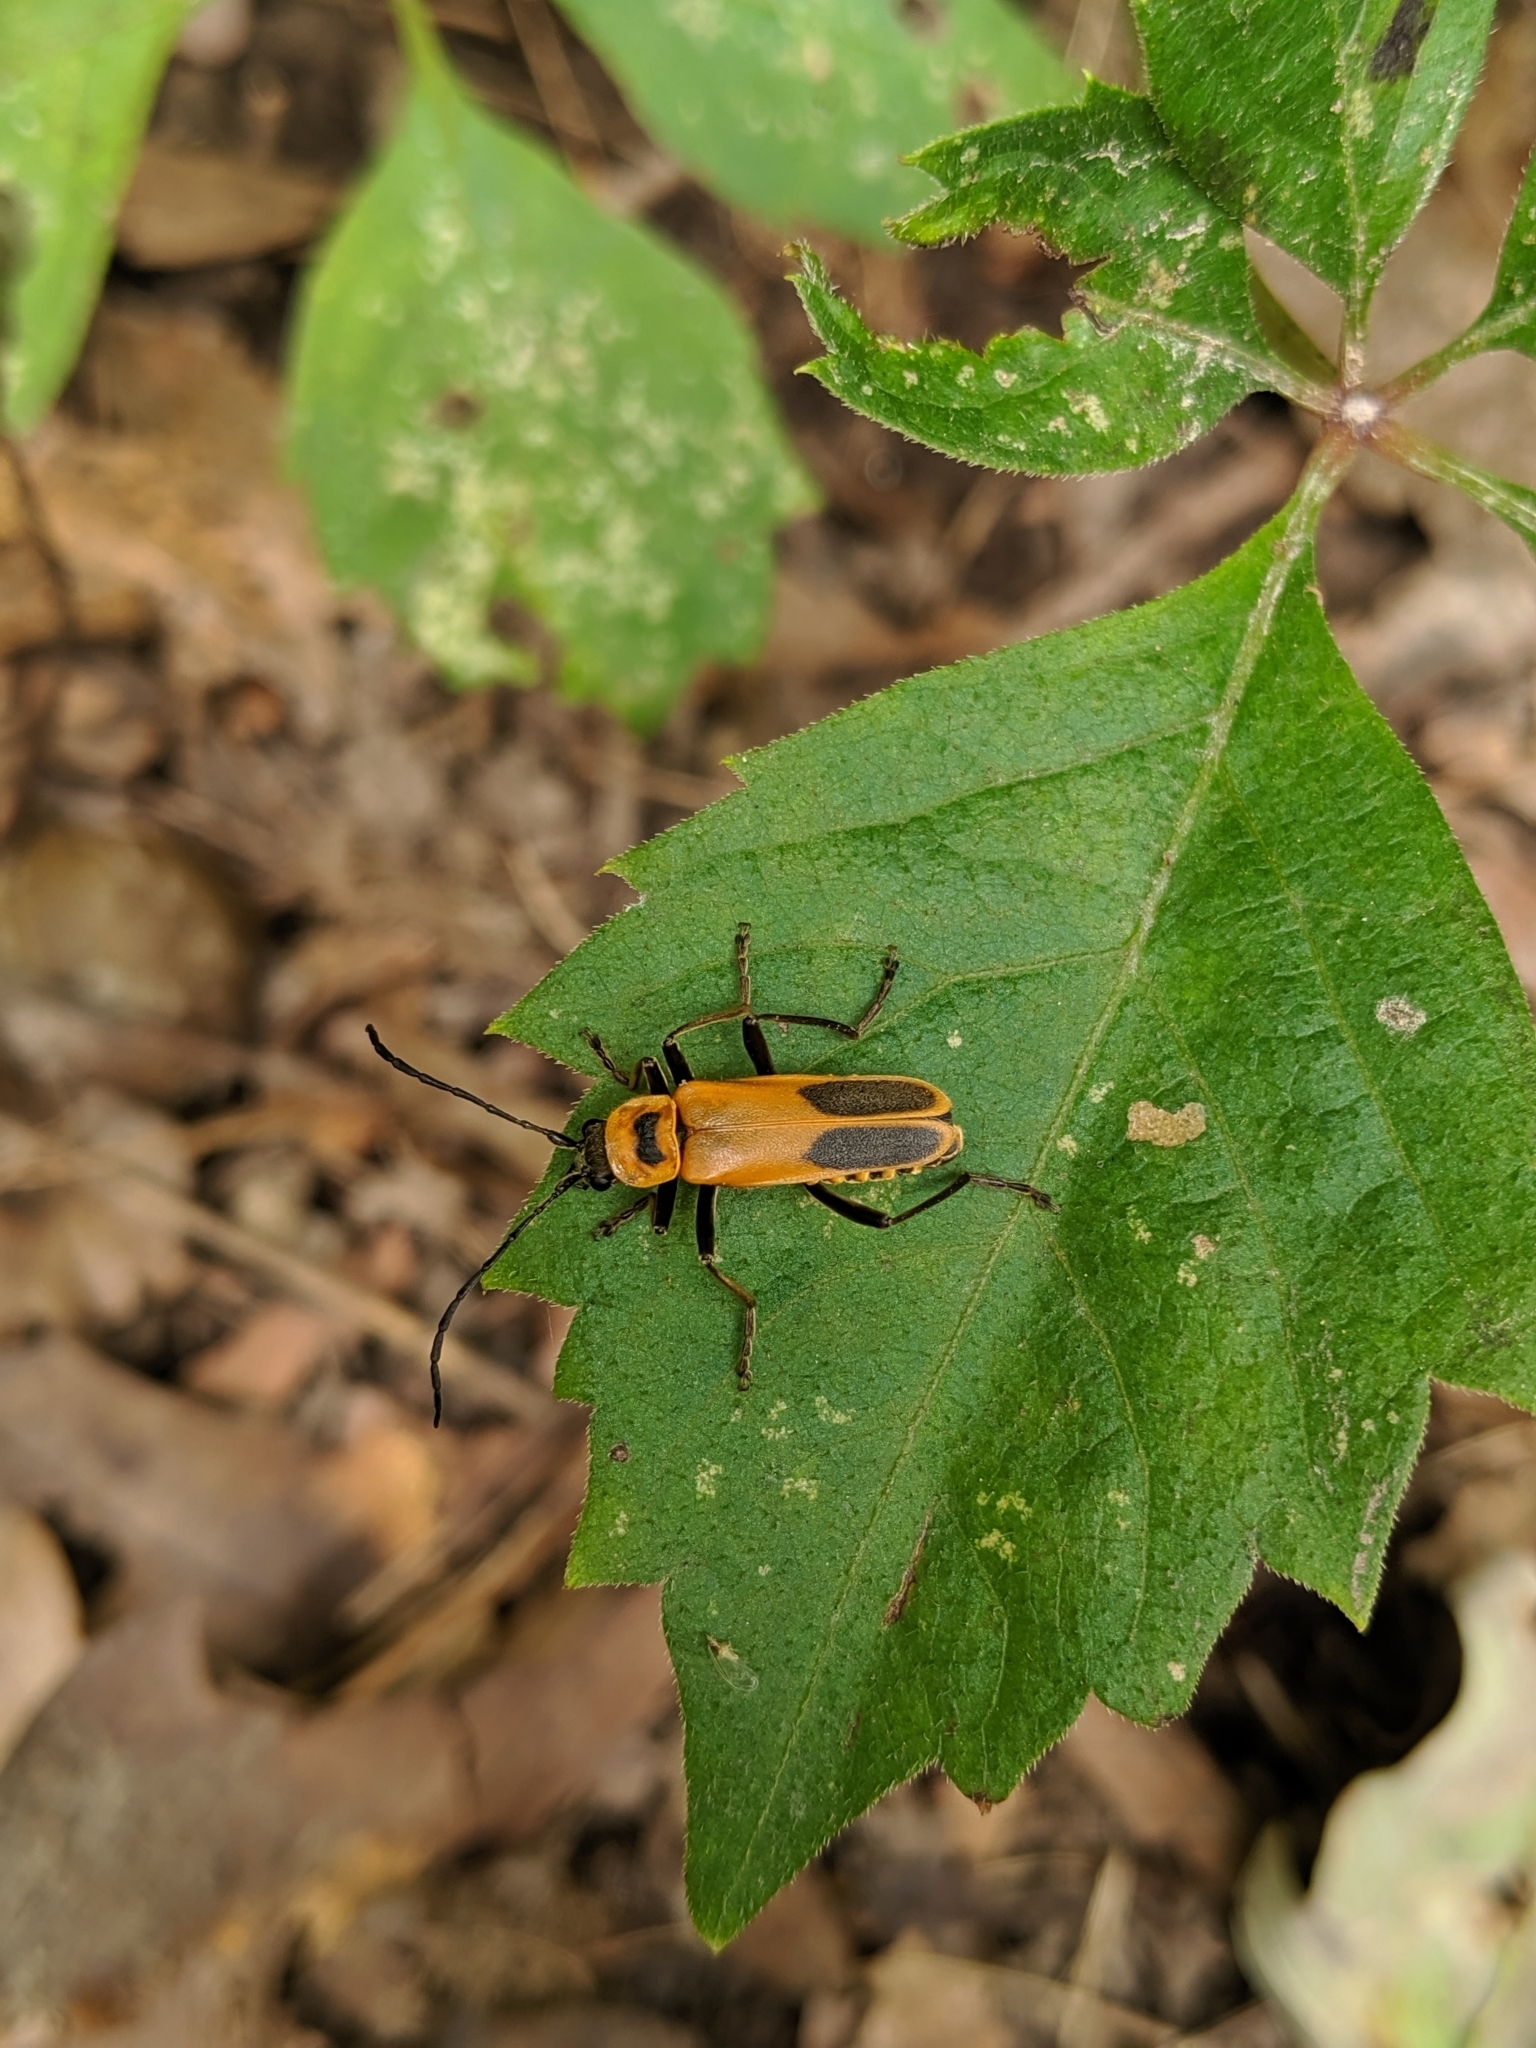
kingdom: Animalia
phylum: Arthropoda
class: Insecta
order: Coleoptera
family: Cantharidae
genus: Chauliognathus
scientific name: Chauliognathus pensylvanicus
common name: Goldenrod soldier beetle
